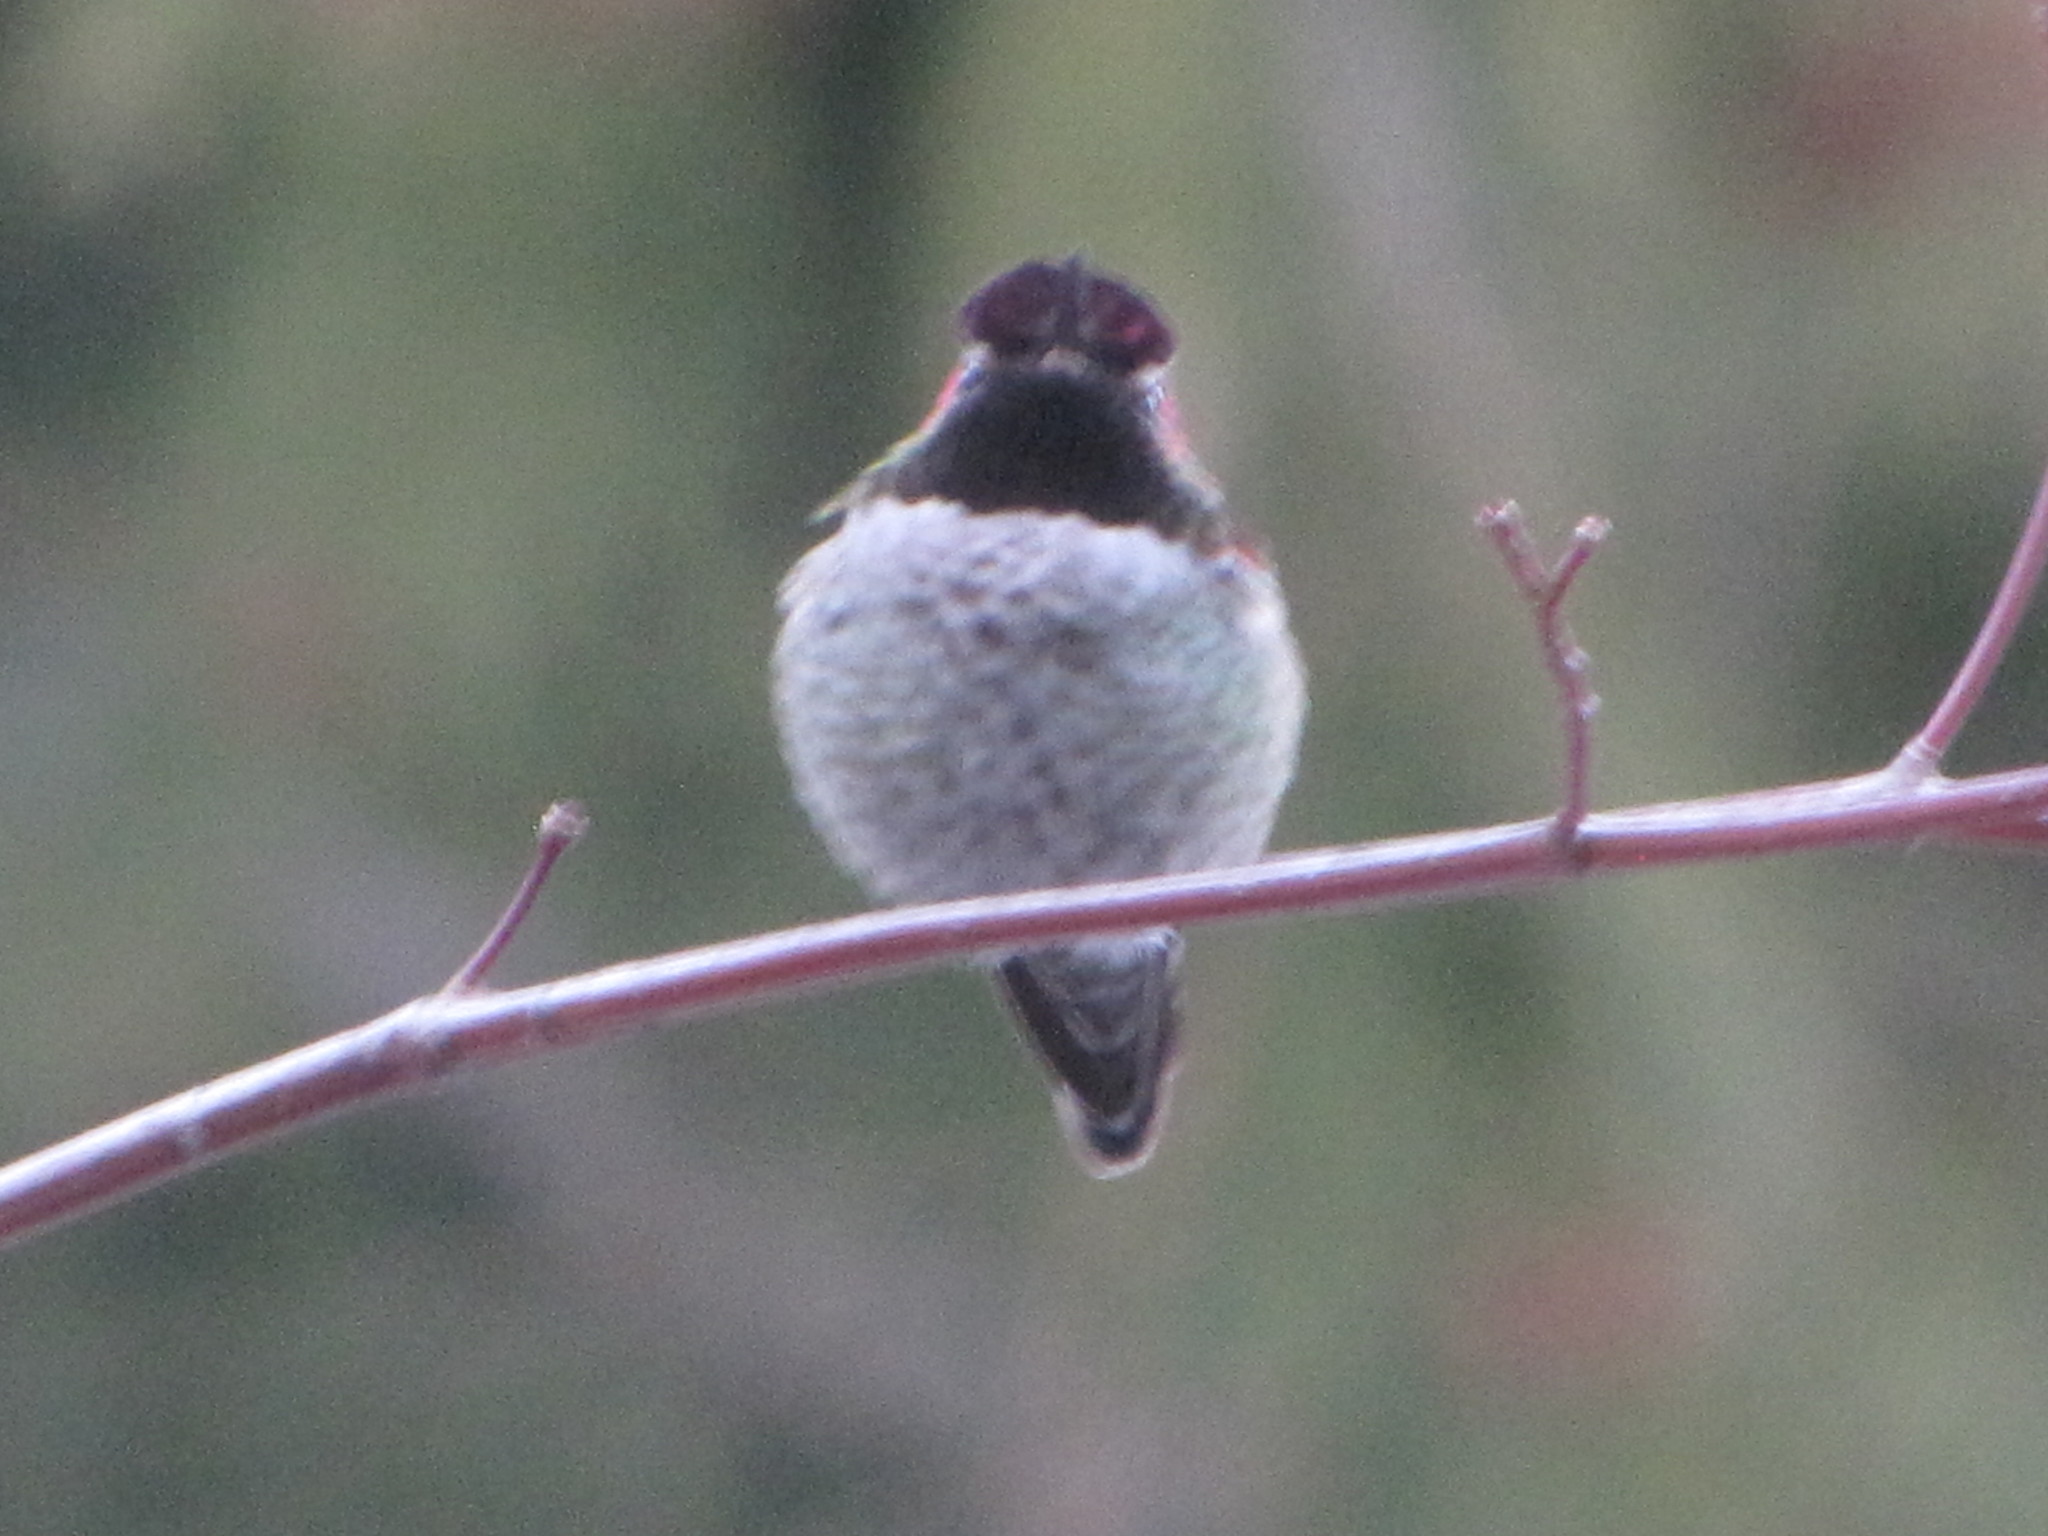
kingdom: Animalia
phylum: Chordata
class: Aves
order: Apodiformes
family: Trochilidae
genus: Calypte
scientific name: Calypte anna
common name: Anna's hummingbird
